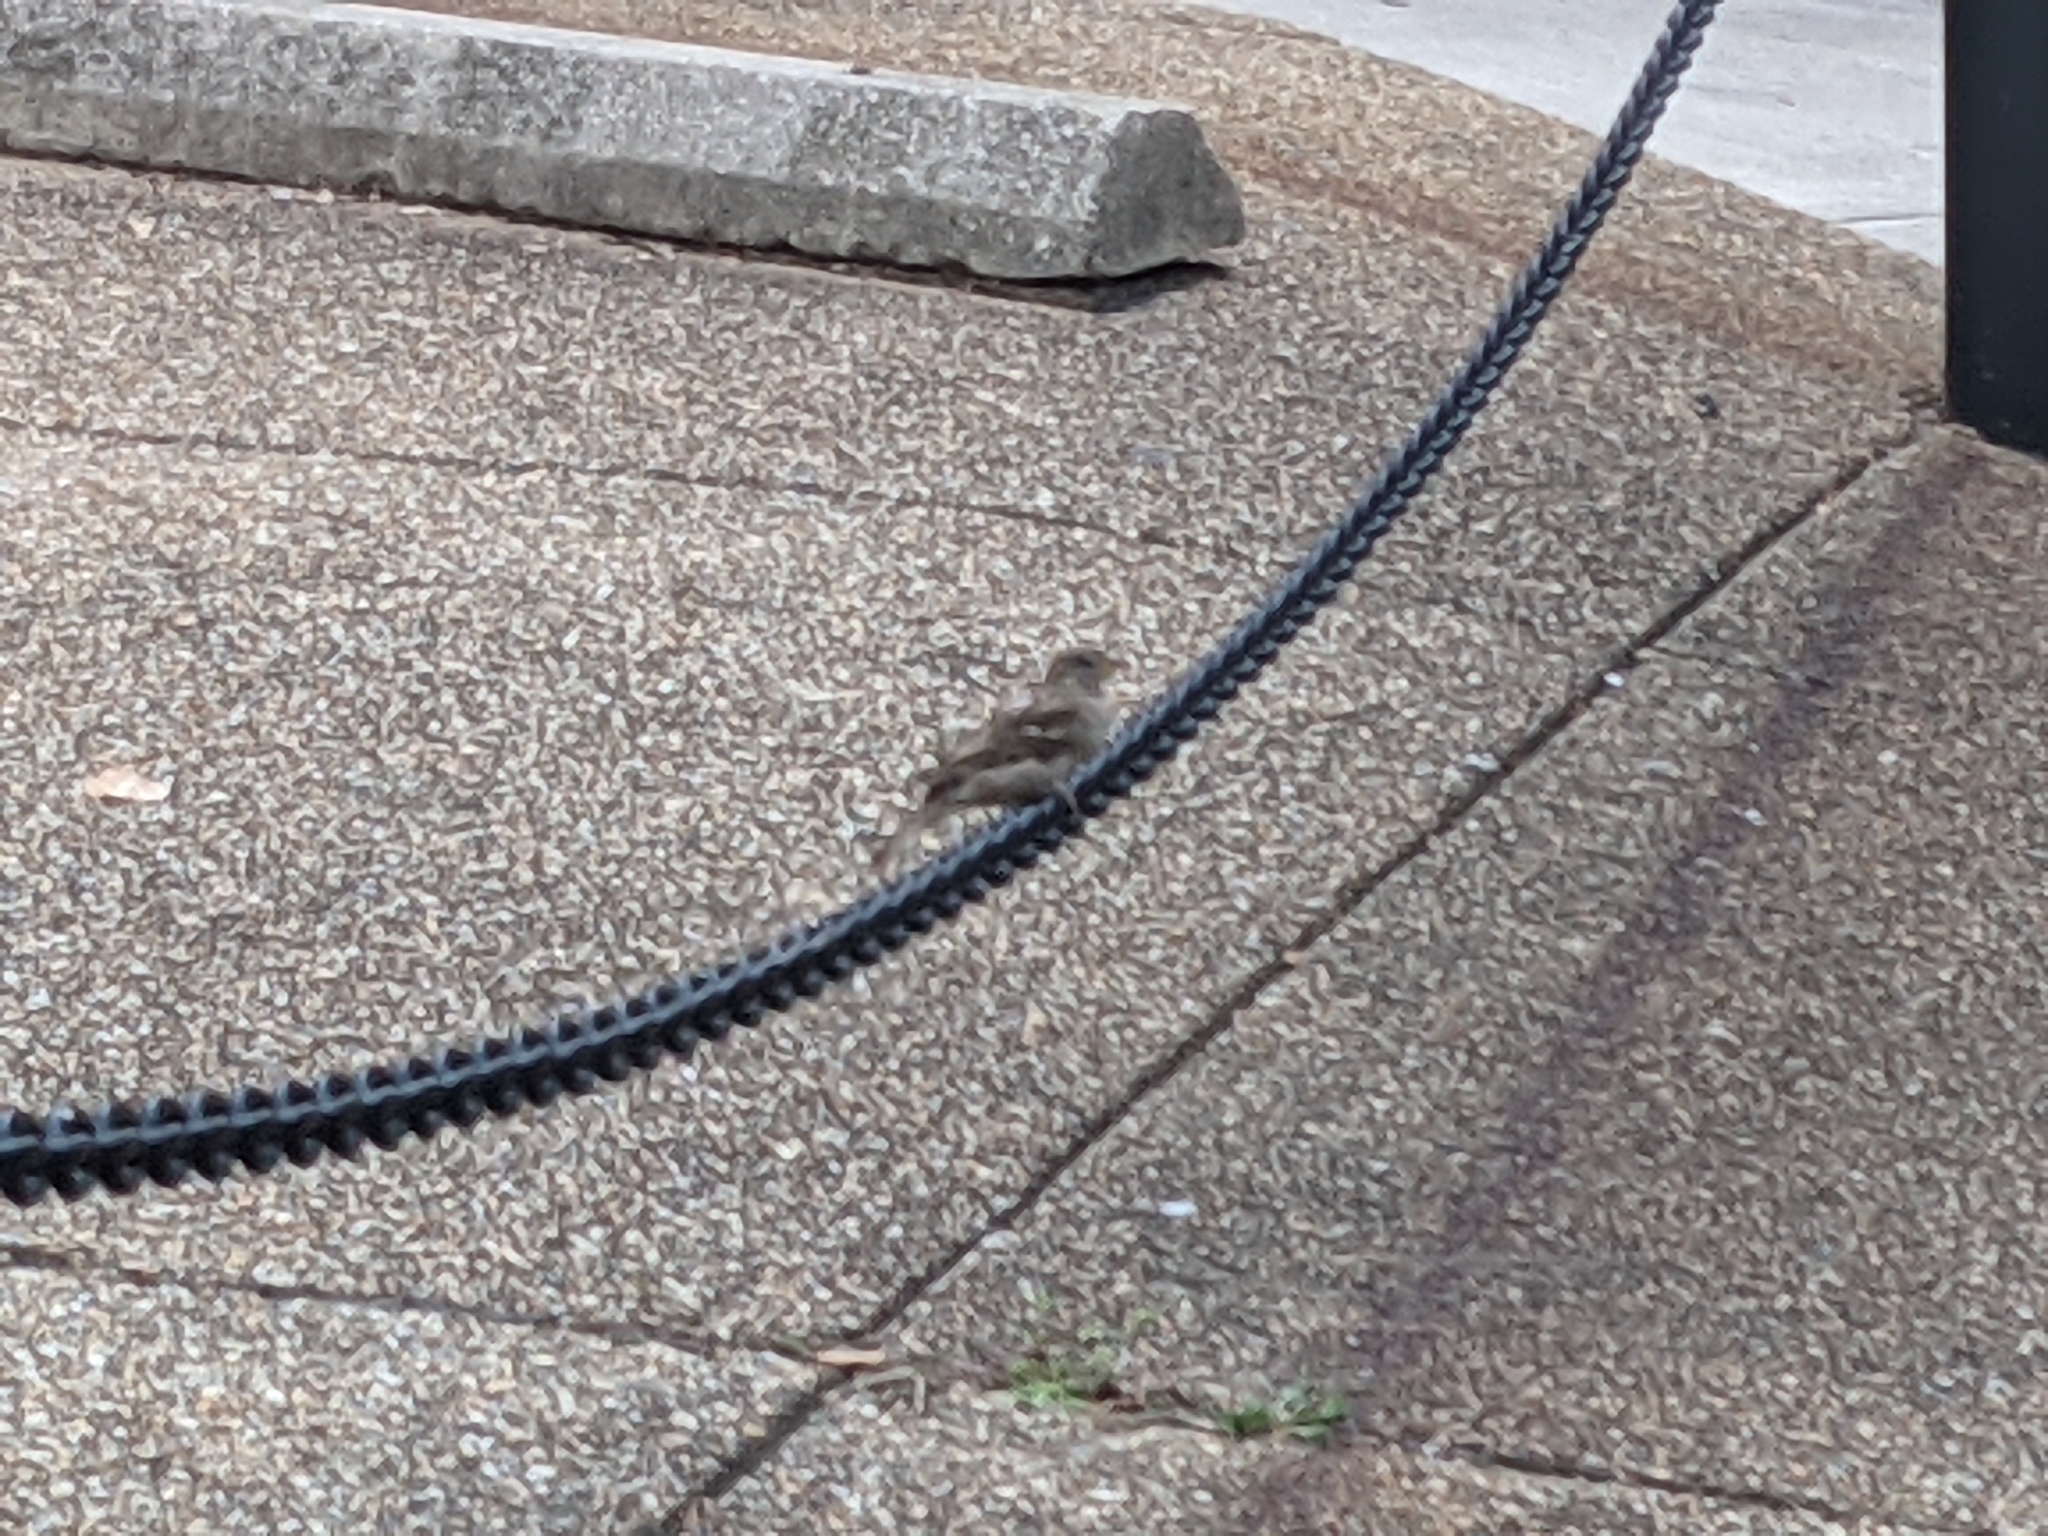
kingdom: Animalia
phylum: Chordata
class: Aves
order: Passeriformes
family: Passeridae
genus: Passer
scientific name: Passer domesticus
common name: House sparrow
